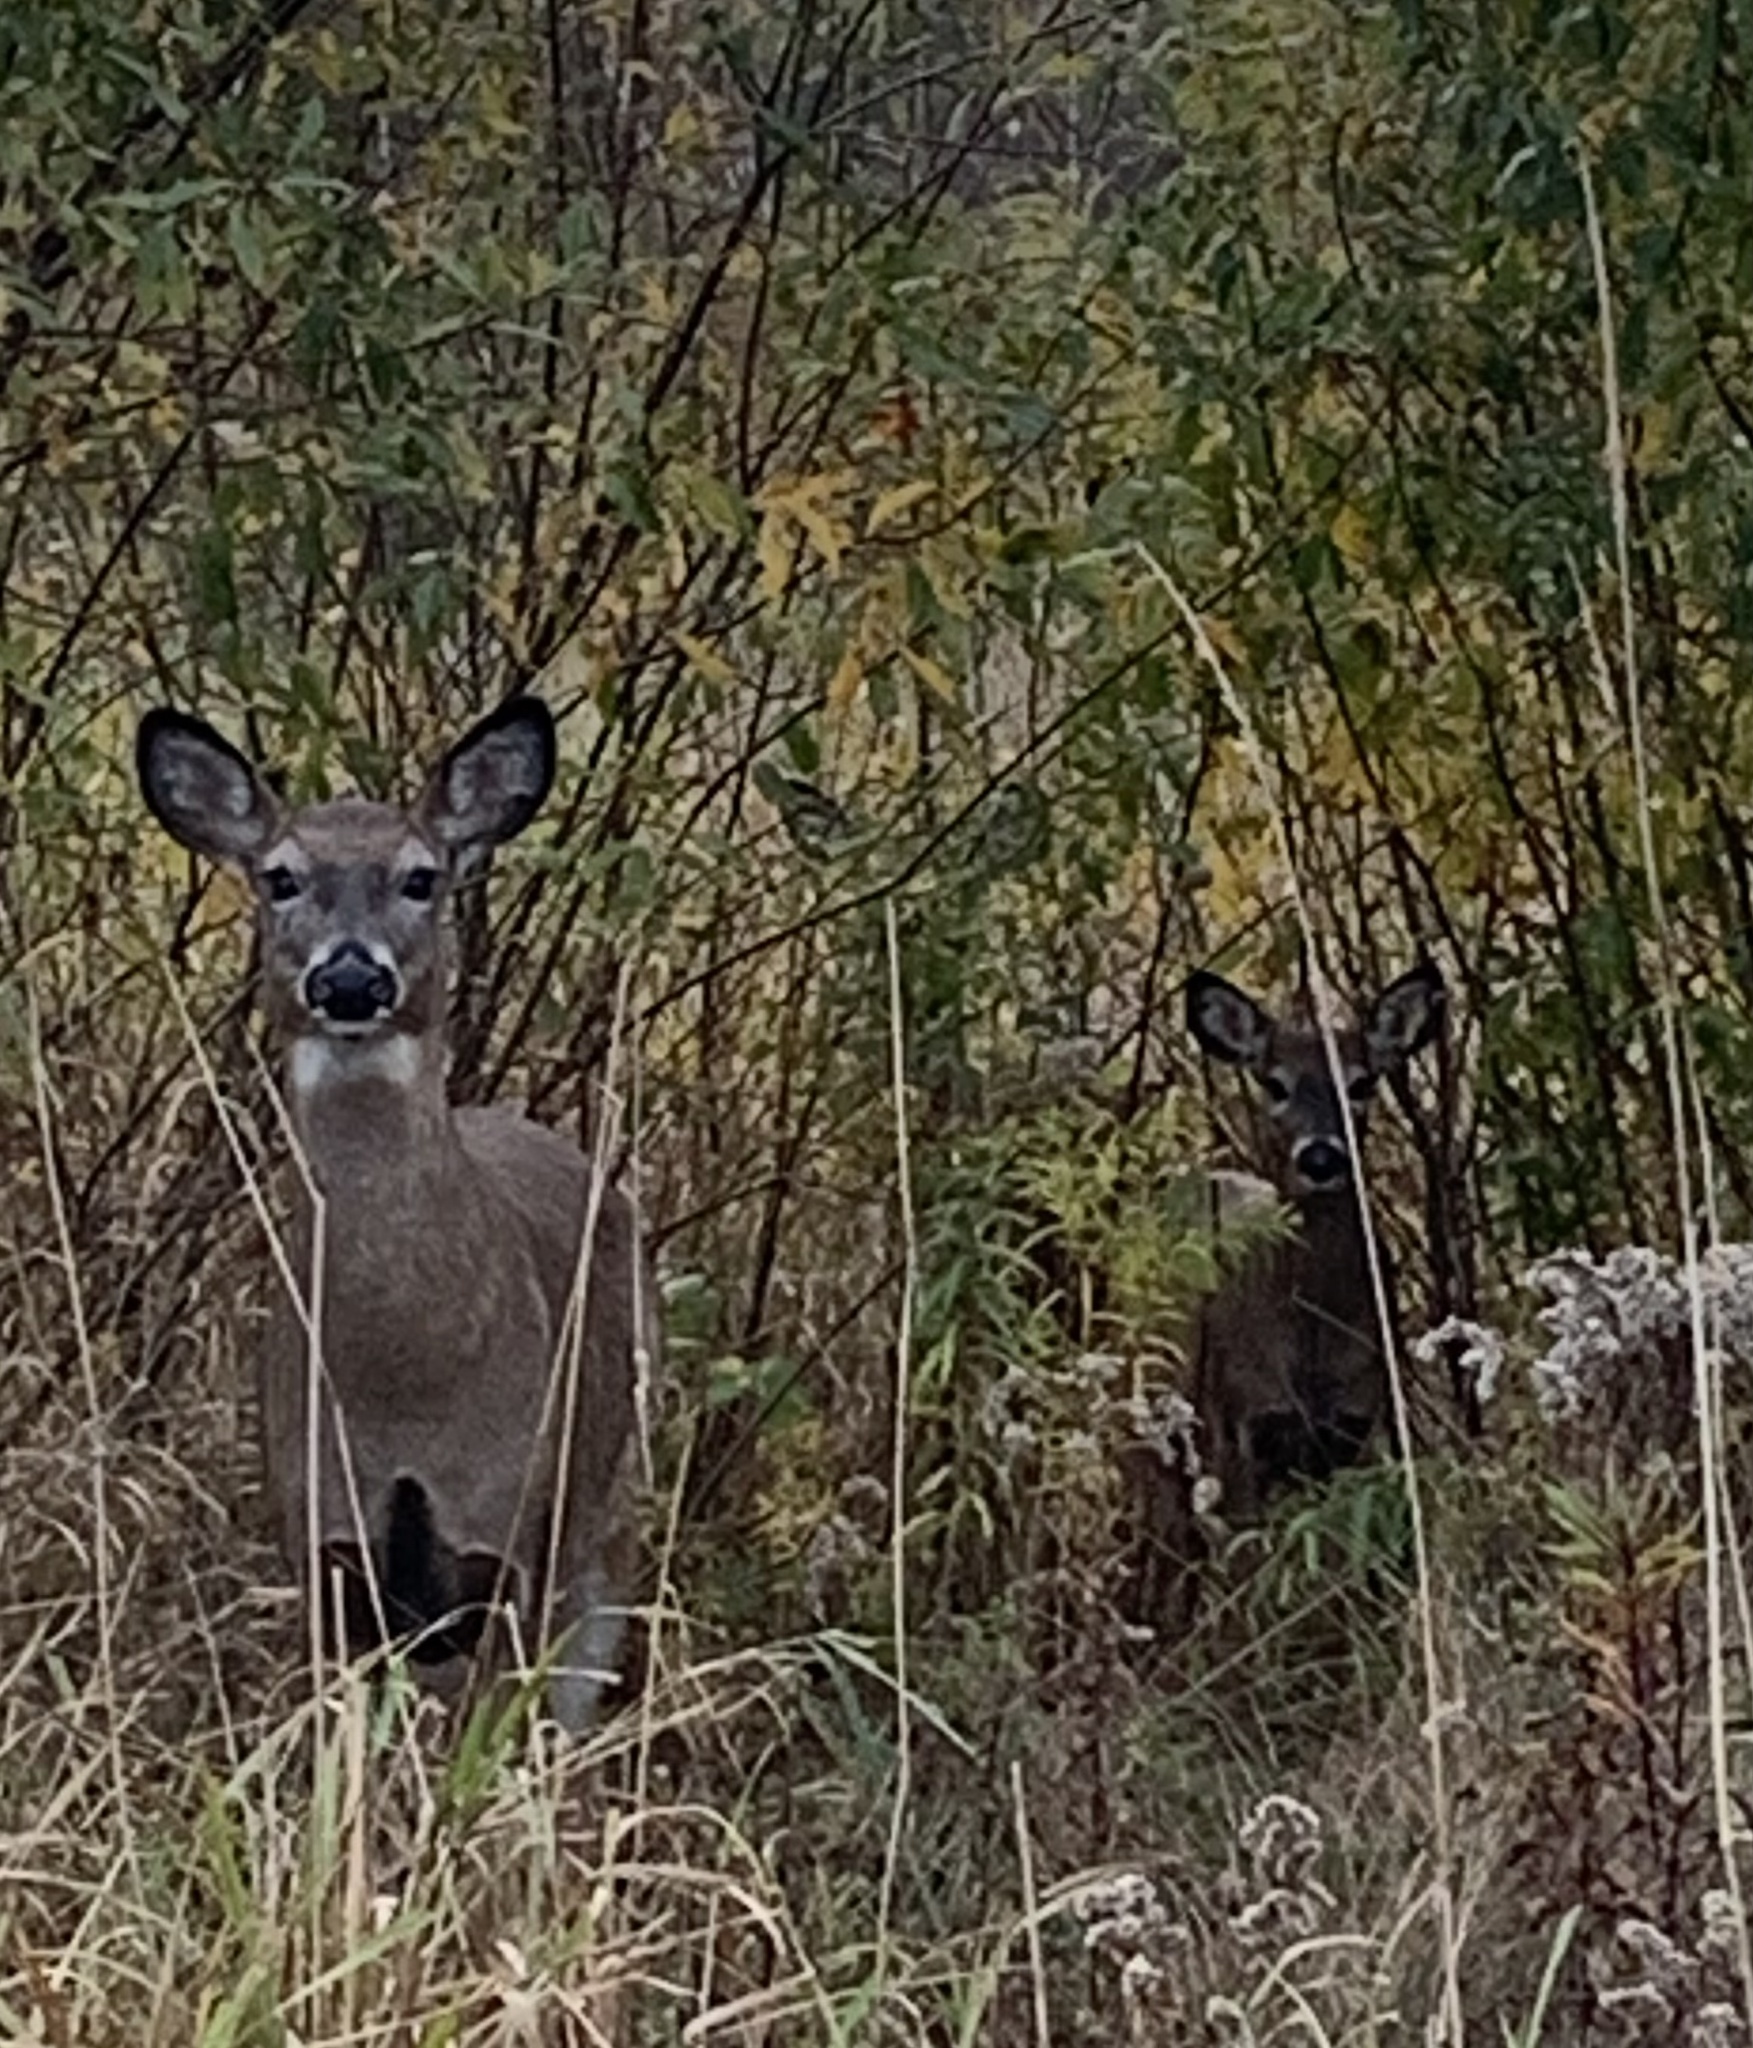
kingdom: Animalia
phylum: Chordata
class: Mammalia
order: Artiodactyla
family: Cervidae
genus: Odocoileus
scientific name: Odocoileus virginianus
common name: White-tailed deer
